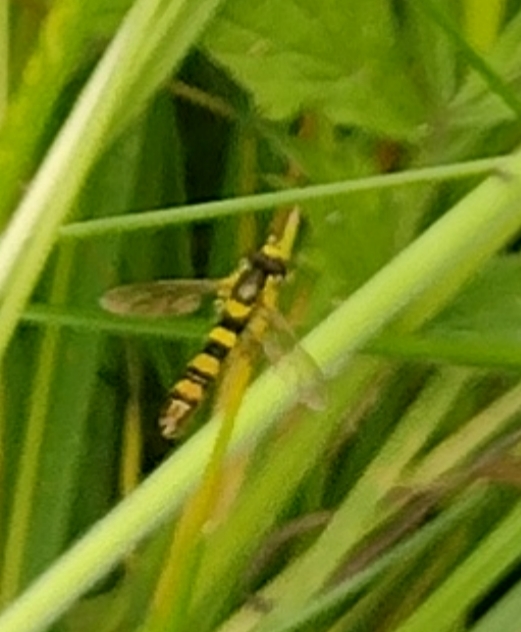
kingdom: Animalia
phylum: Arthropoda
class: Insecta
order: Diptera
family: Syrphidae
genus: Sphaerophoria
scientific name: Sphaerophoria scripta
